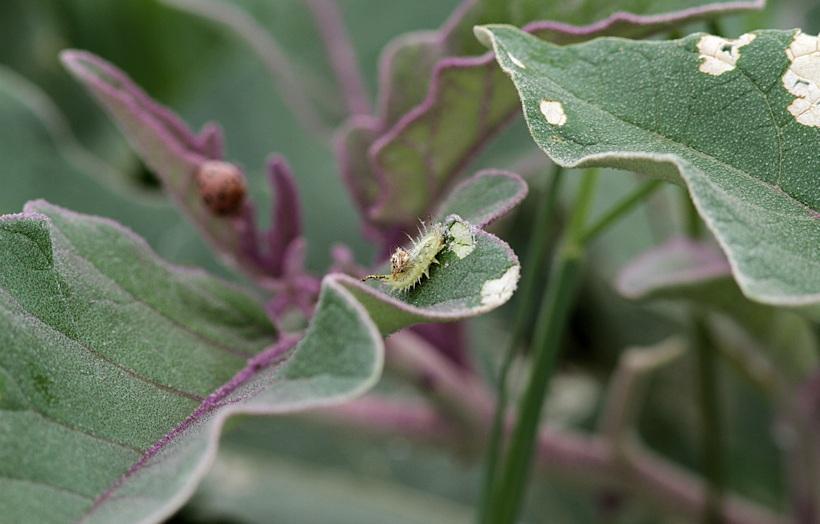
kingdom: Plantae
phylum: Tracheophyta
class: Magnoliopsida
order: Solanales
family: Solanaceae
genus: Solanum
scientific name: Solanum lichtensteinii
